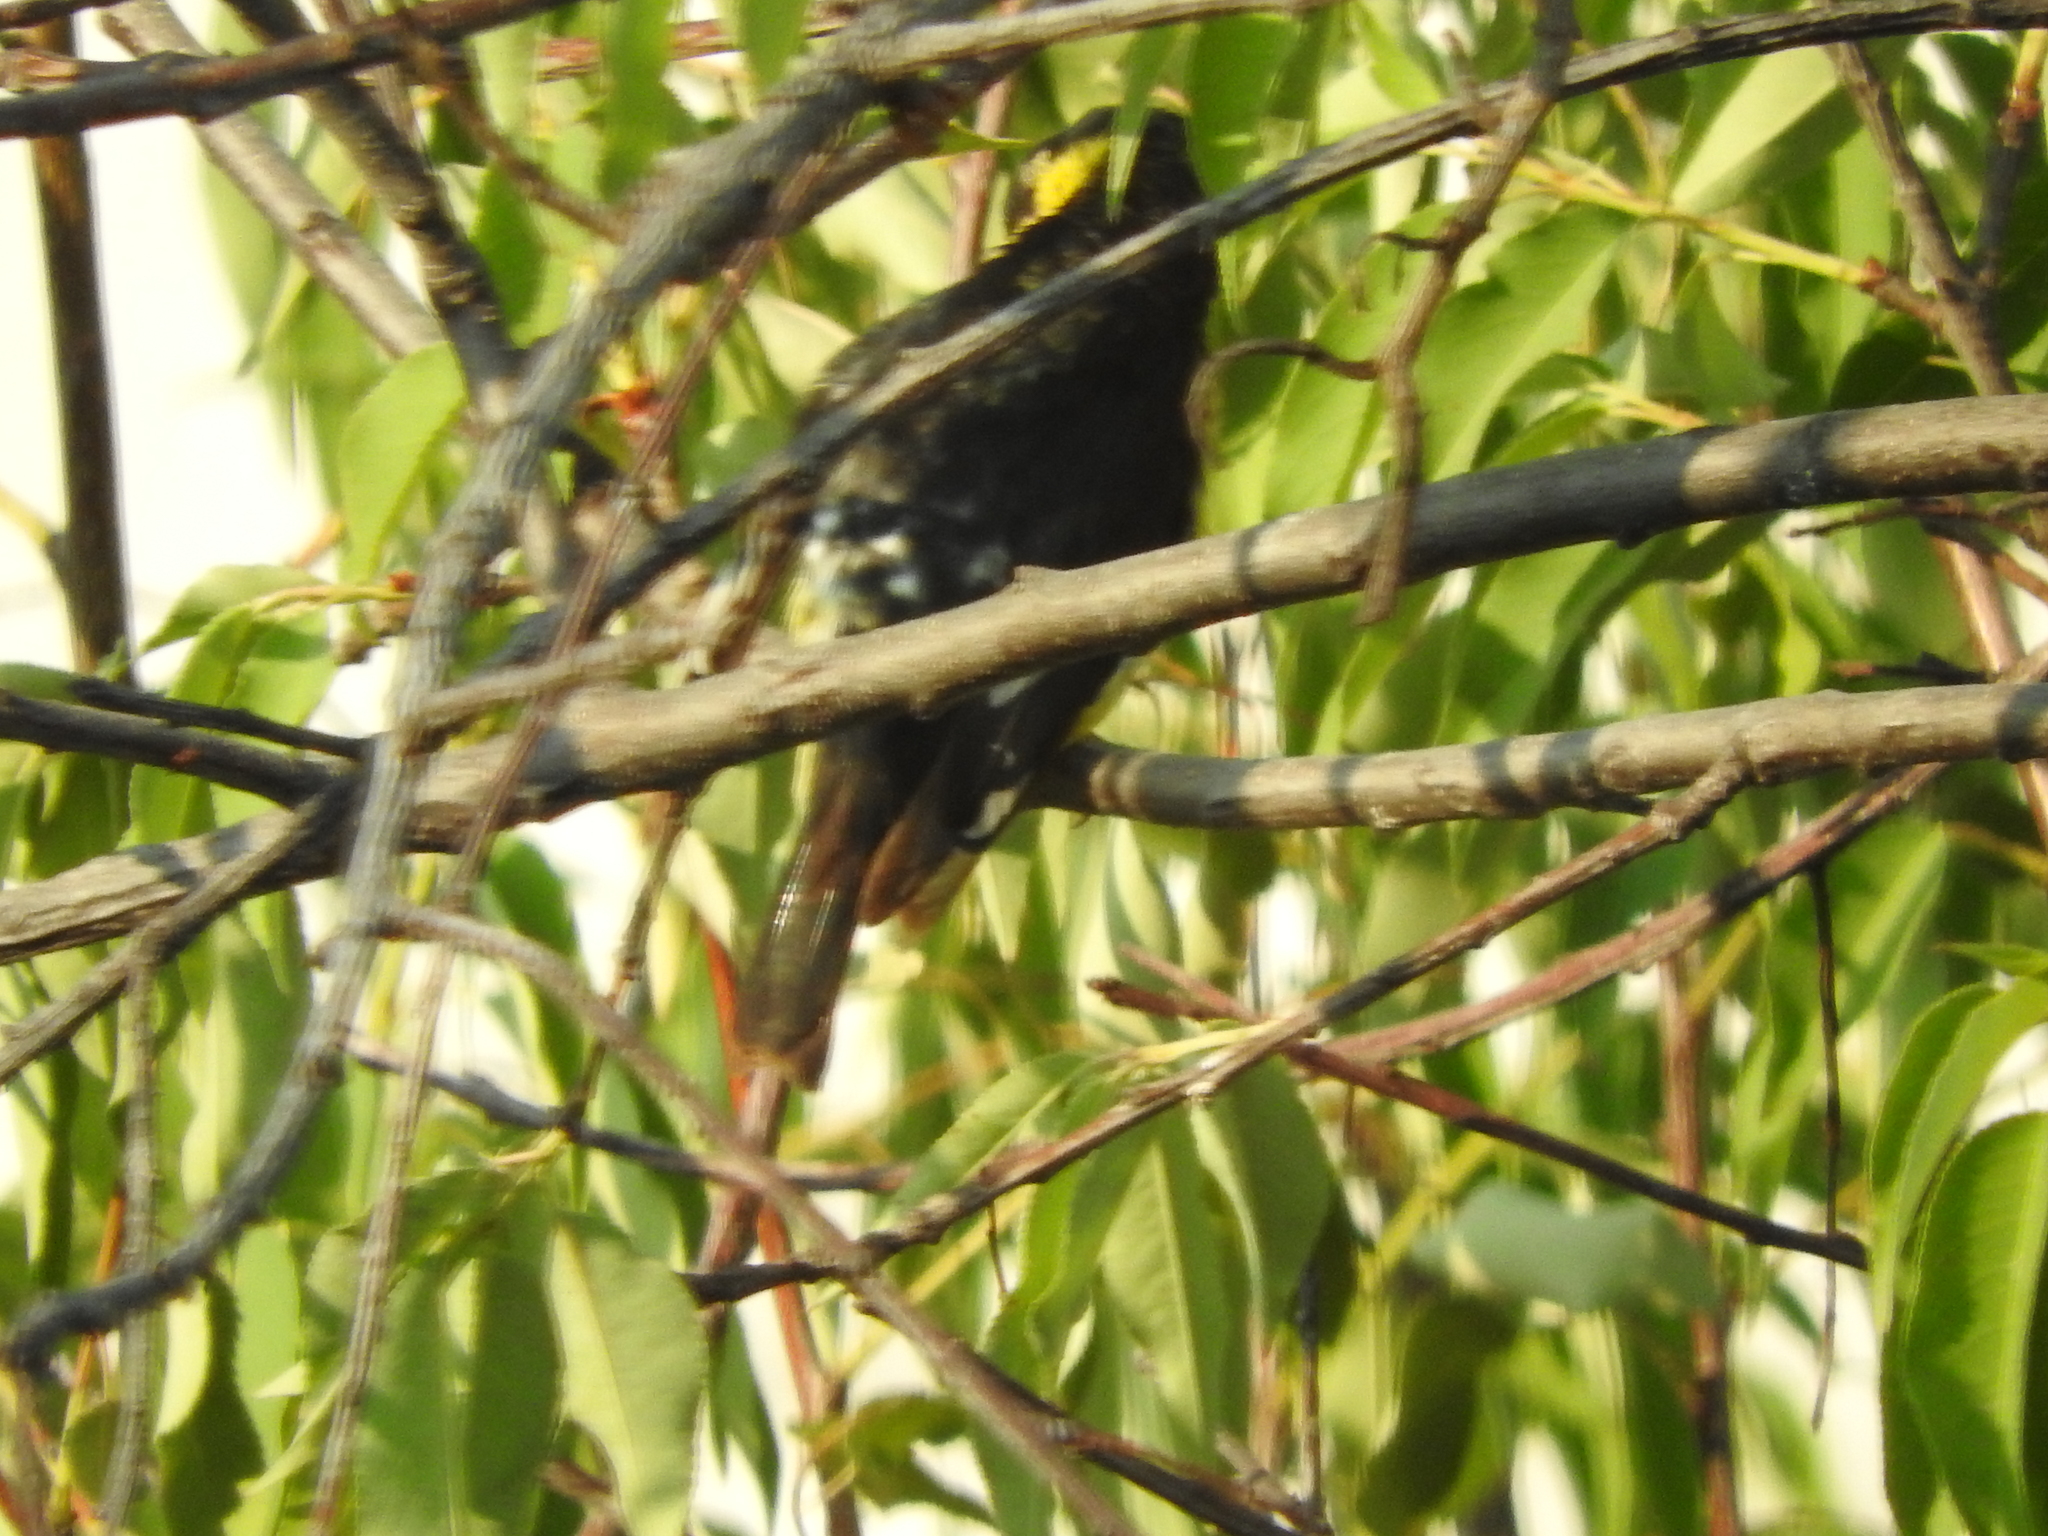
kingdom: Animalia
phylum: Chordata
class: Aves
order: Passeriformes
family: Fringillidae
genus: Spinus
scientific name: Spinus psaltria
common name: Lesser goldfinch
